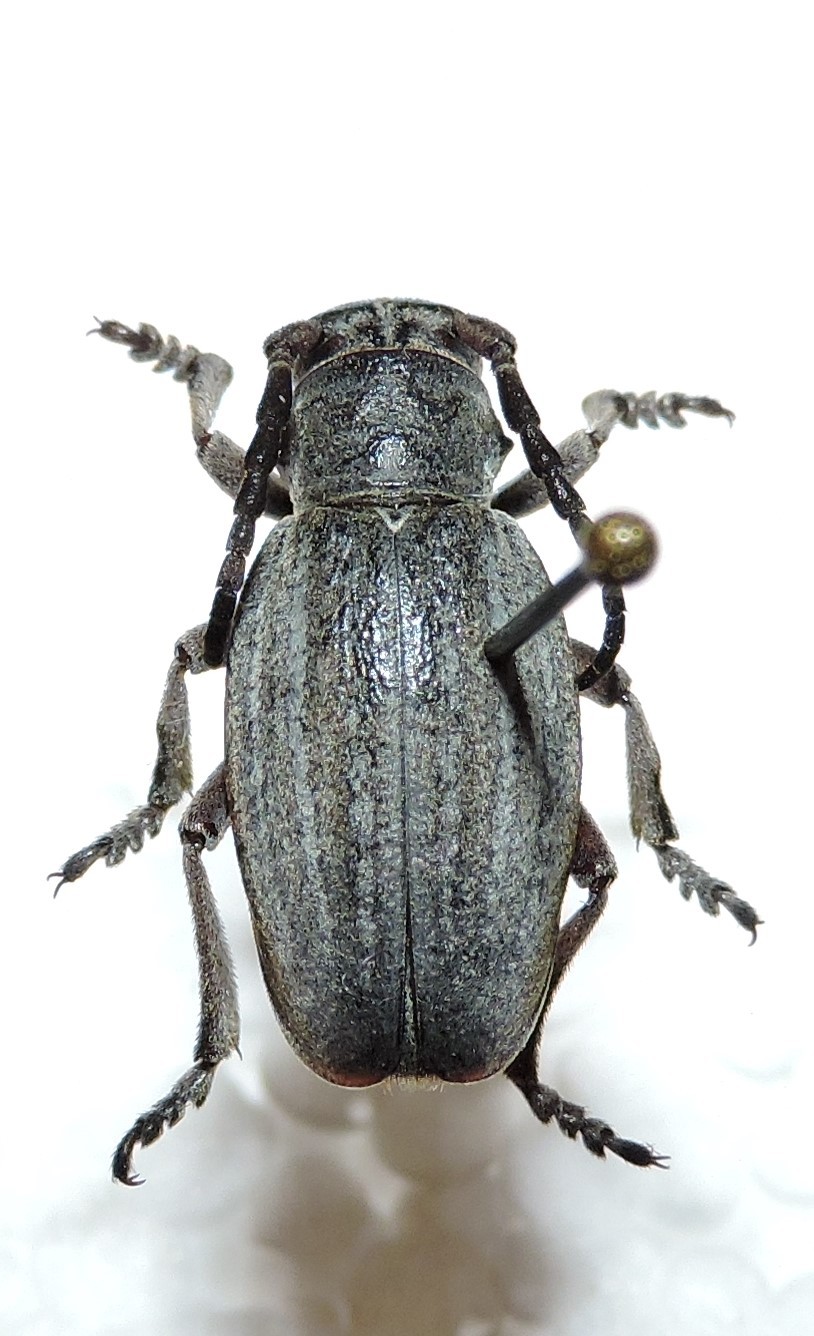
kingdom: Animalia
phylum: Arthropoda
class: Insecta
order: Coleoptera
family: Cerambycidae
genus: Dorcadion
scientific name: Dorcadion reitteri
